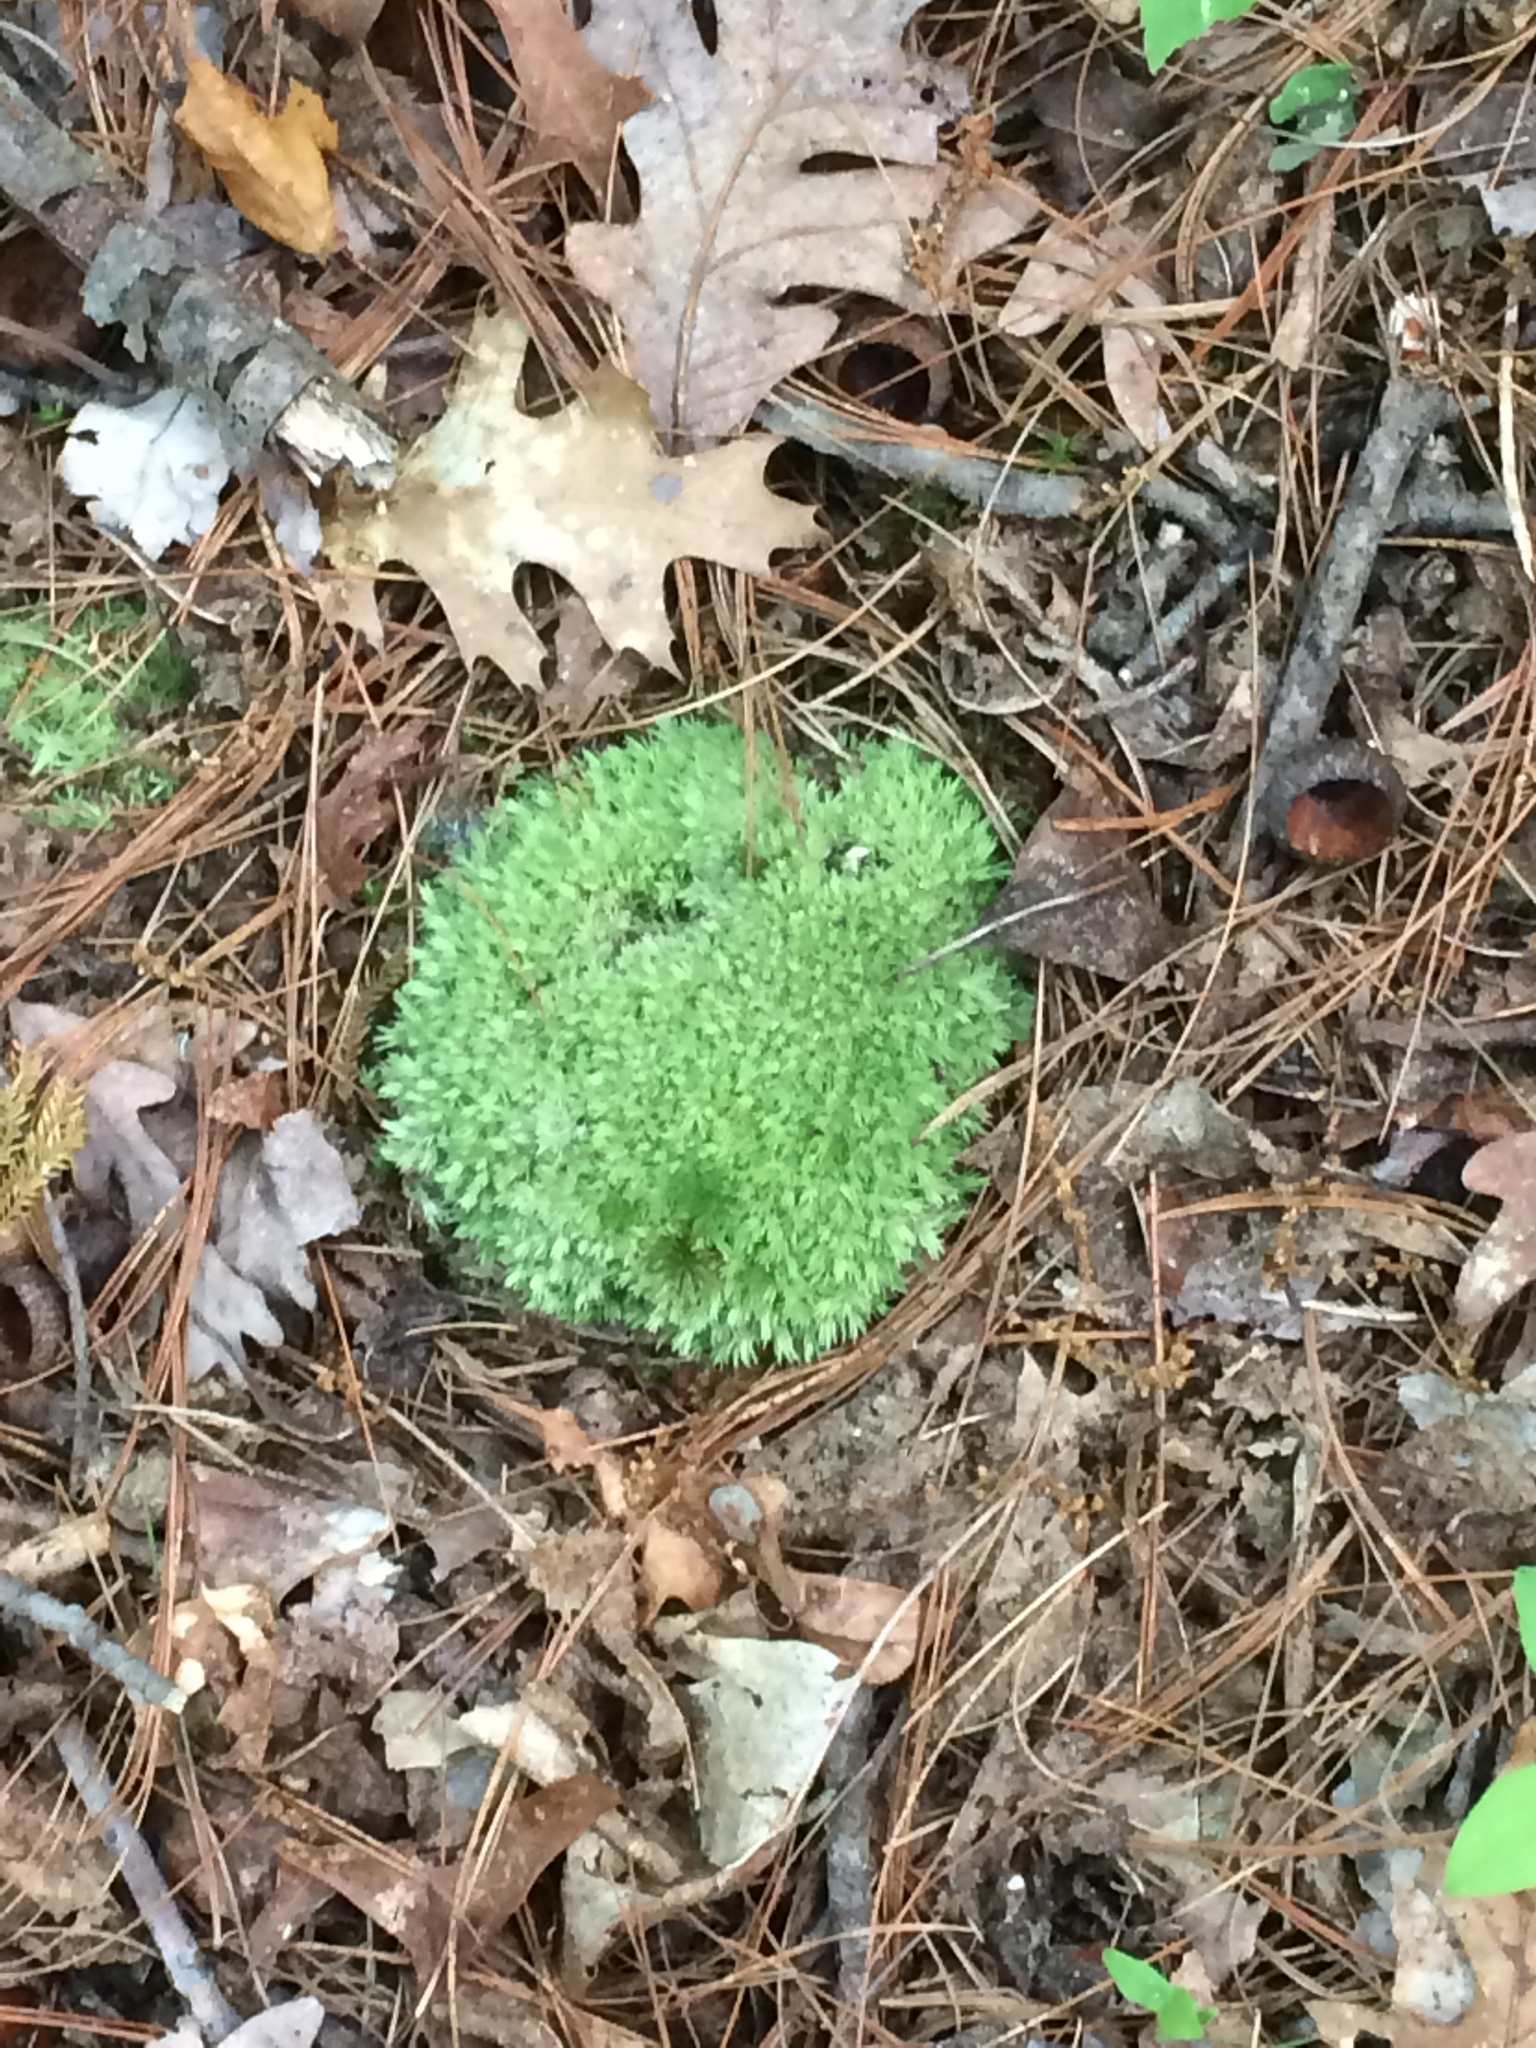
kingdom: Plantae
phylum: Bryophyta
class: Bryopsida
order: Dicranales
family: Leucobryaceae
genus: Leucobryum
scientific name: Leucobryum glaucum
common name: Large white-moss
